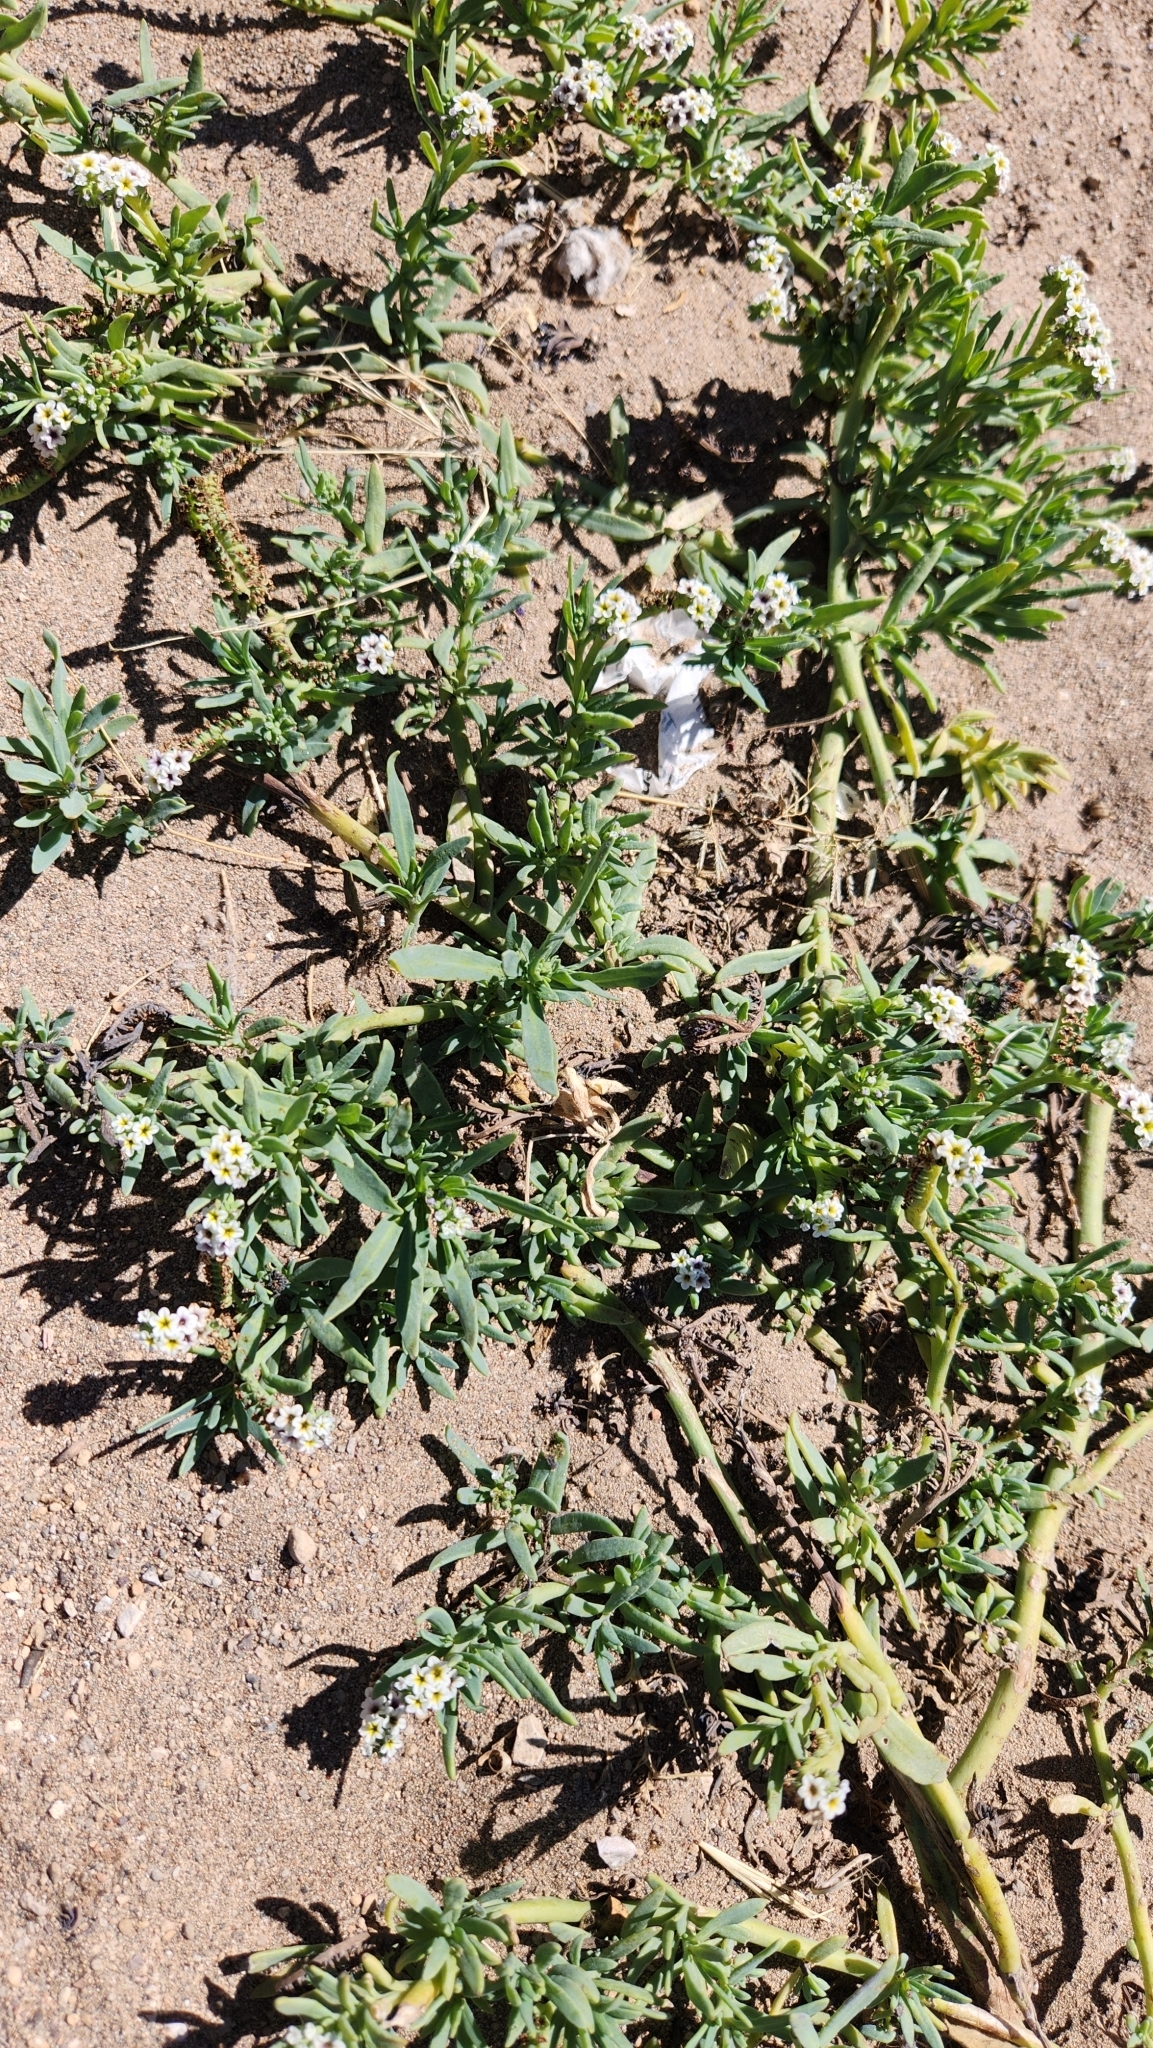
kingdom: Plantae
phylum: Tracheophyta
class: Magnoliopsida
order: Boraginales
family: Heliotropiaceae
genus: Heliotropium
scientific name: Heliotropium curassavicum
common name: Seaside heliotrope
